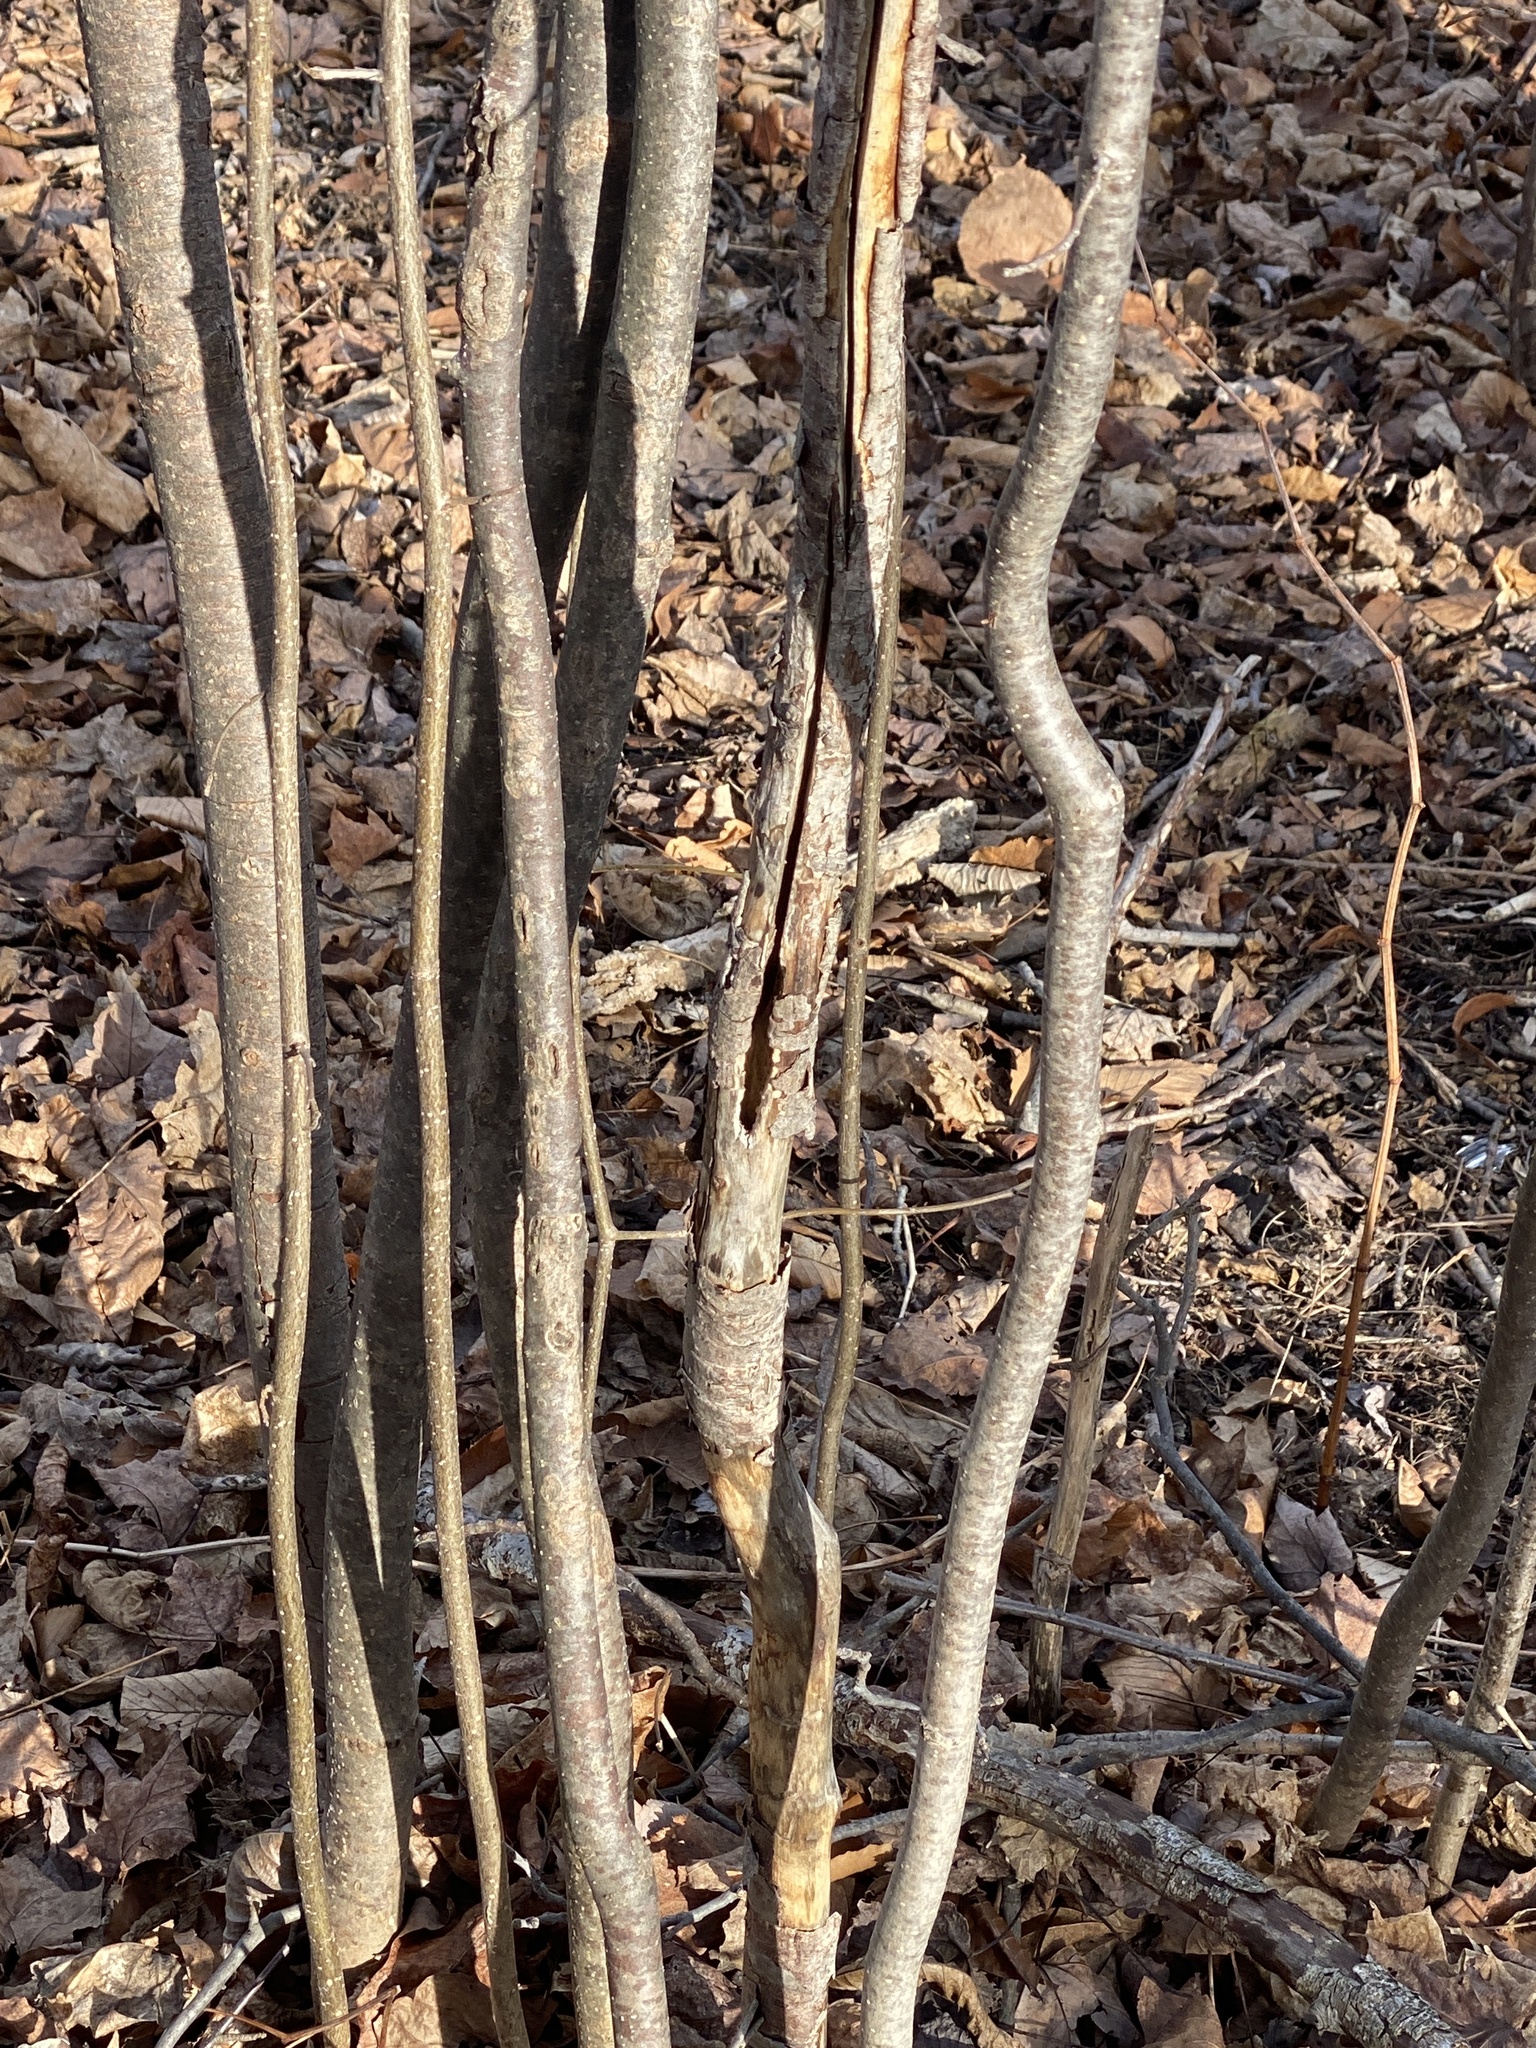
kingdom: Plantae
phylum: Tracheophyta
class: Magnoliopsida
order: Saxifragales
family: Hamamelidaceae
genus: Hamamelis
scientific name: Hamamelis virginiana
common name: Witch-hazel
